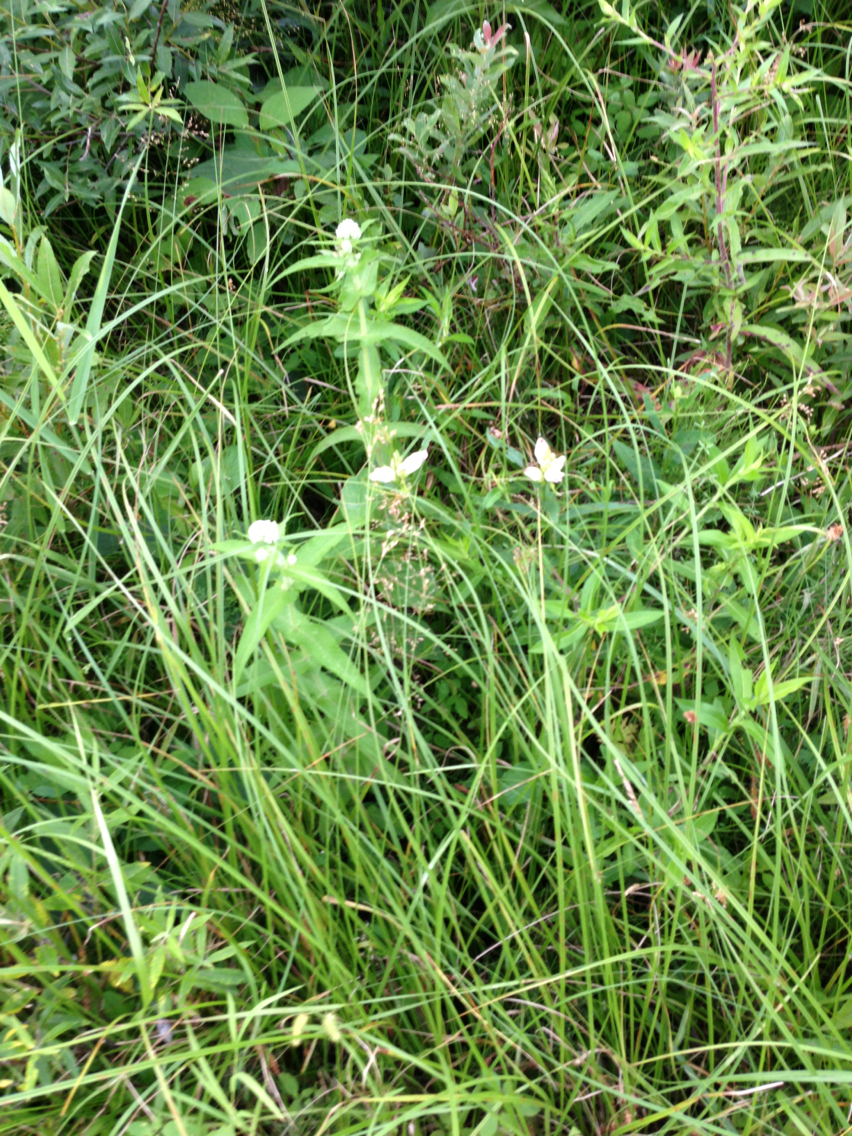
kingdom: Plantae
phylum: Tracheophyta
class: Magnoliopsida
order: Lamiales
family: Plantaginaceae
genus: Chelone
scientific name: Chelone glabra
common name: Snakehead
